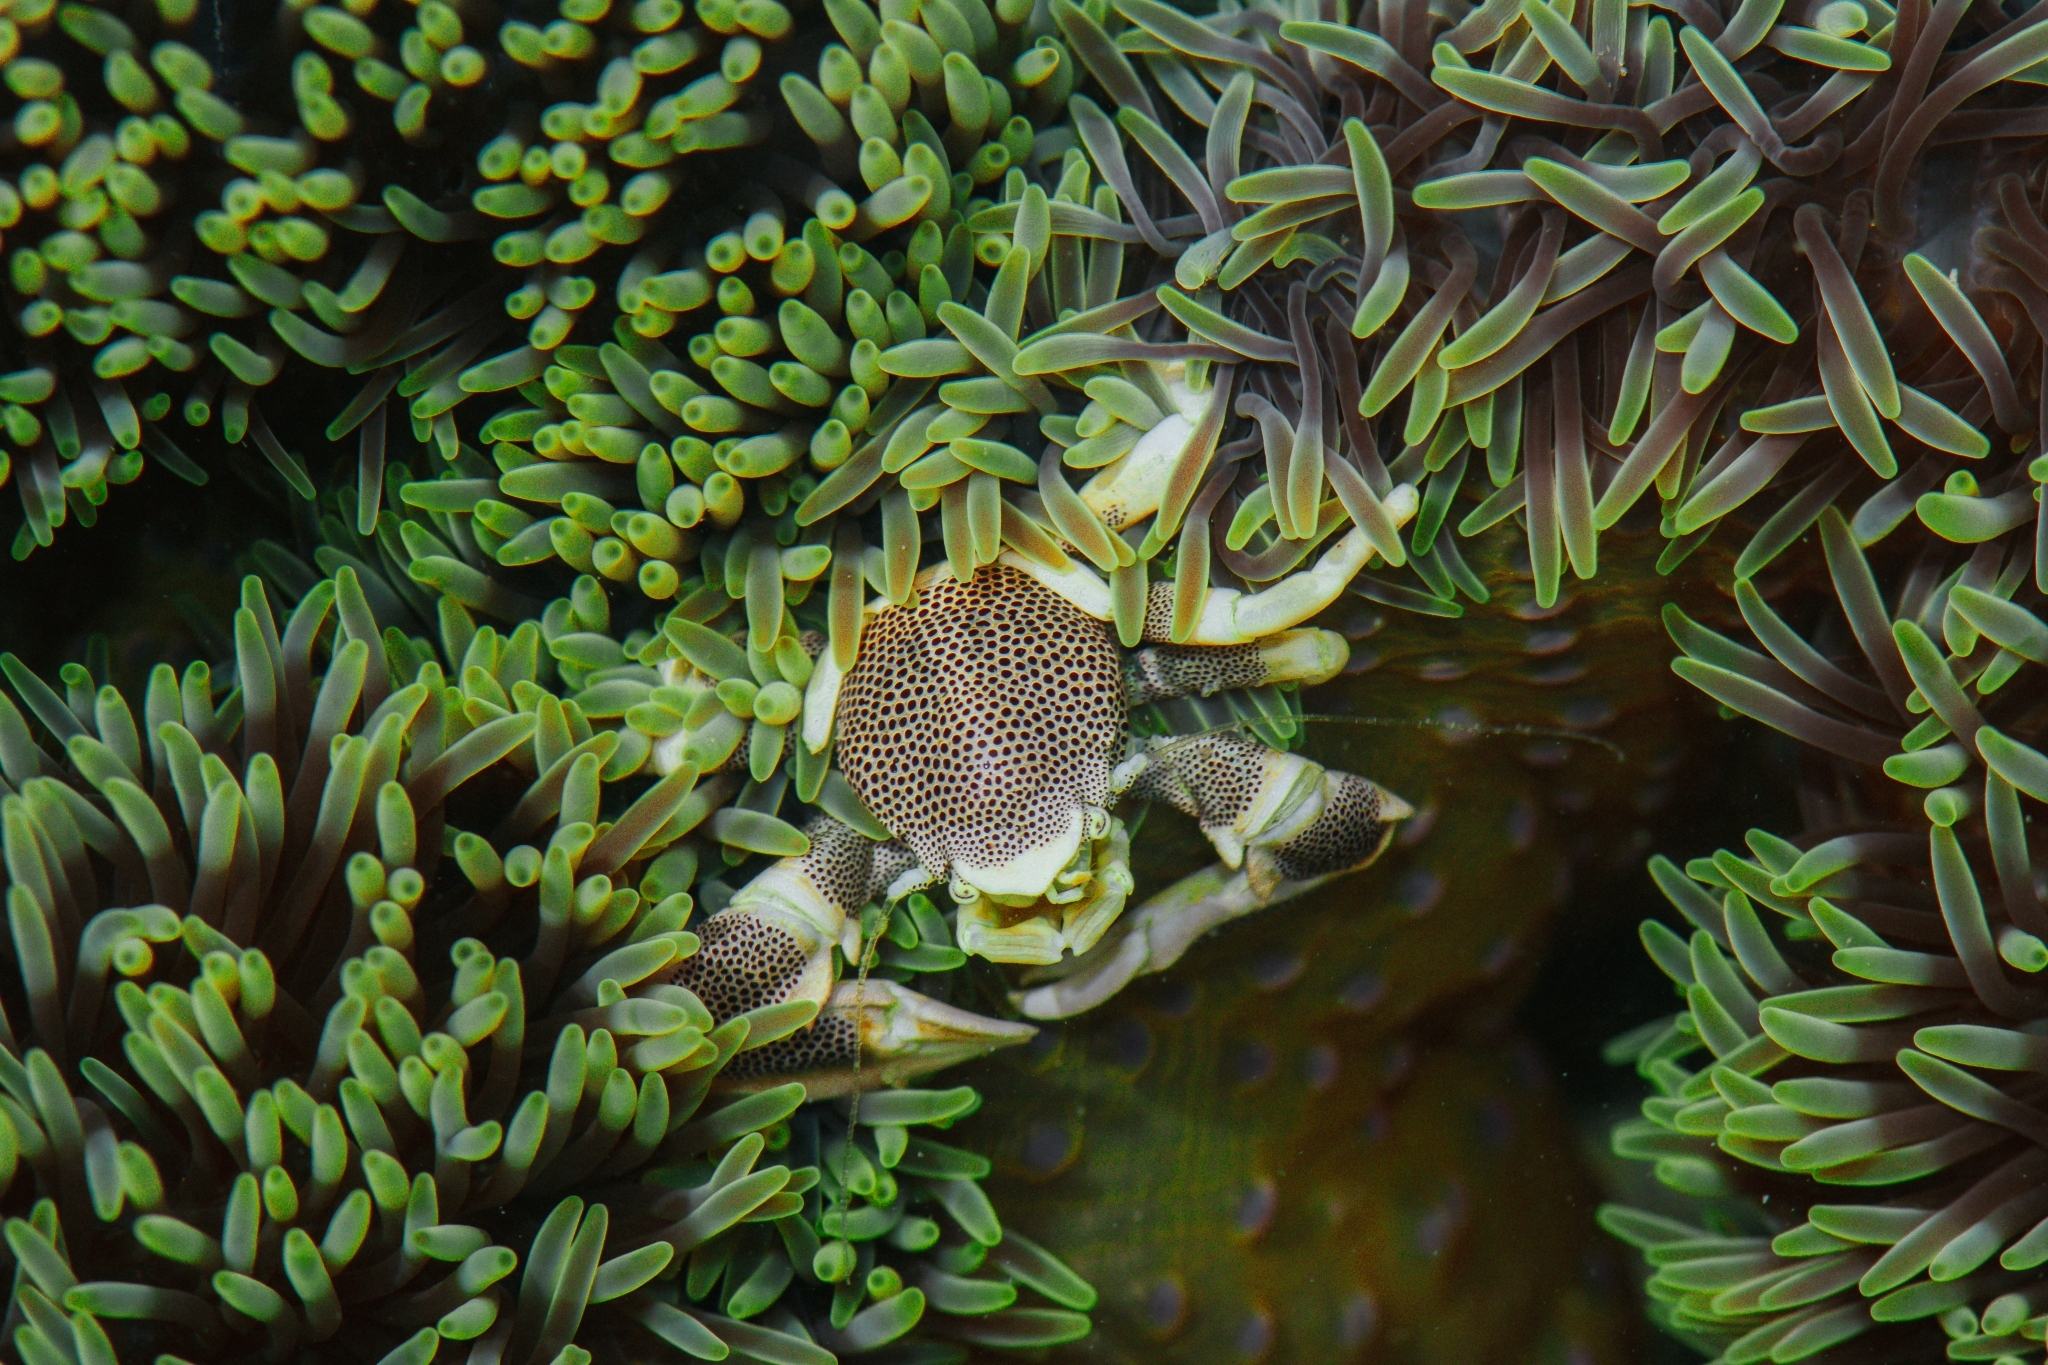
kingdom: Animalia
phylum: Arthropoda
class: Malacostraca
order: Decapoda
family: Porcellanidae
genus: Neopetrolisthes
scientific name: Neopetrolisthes maculatus
